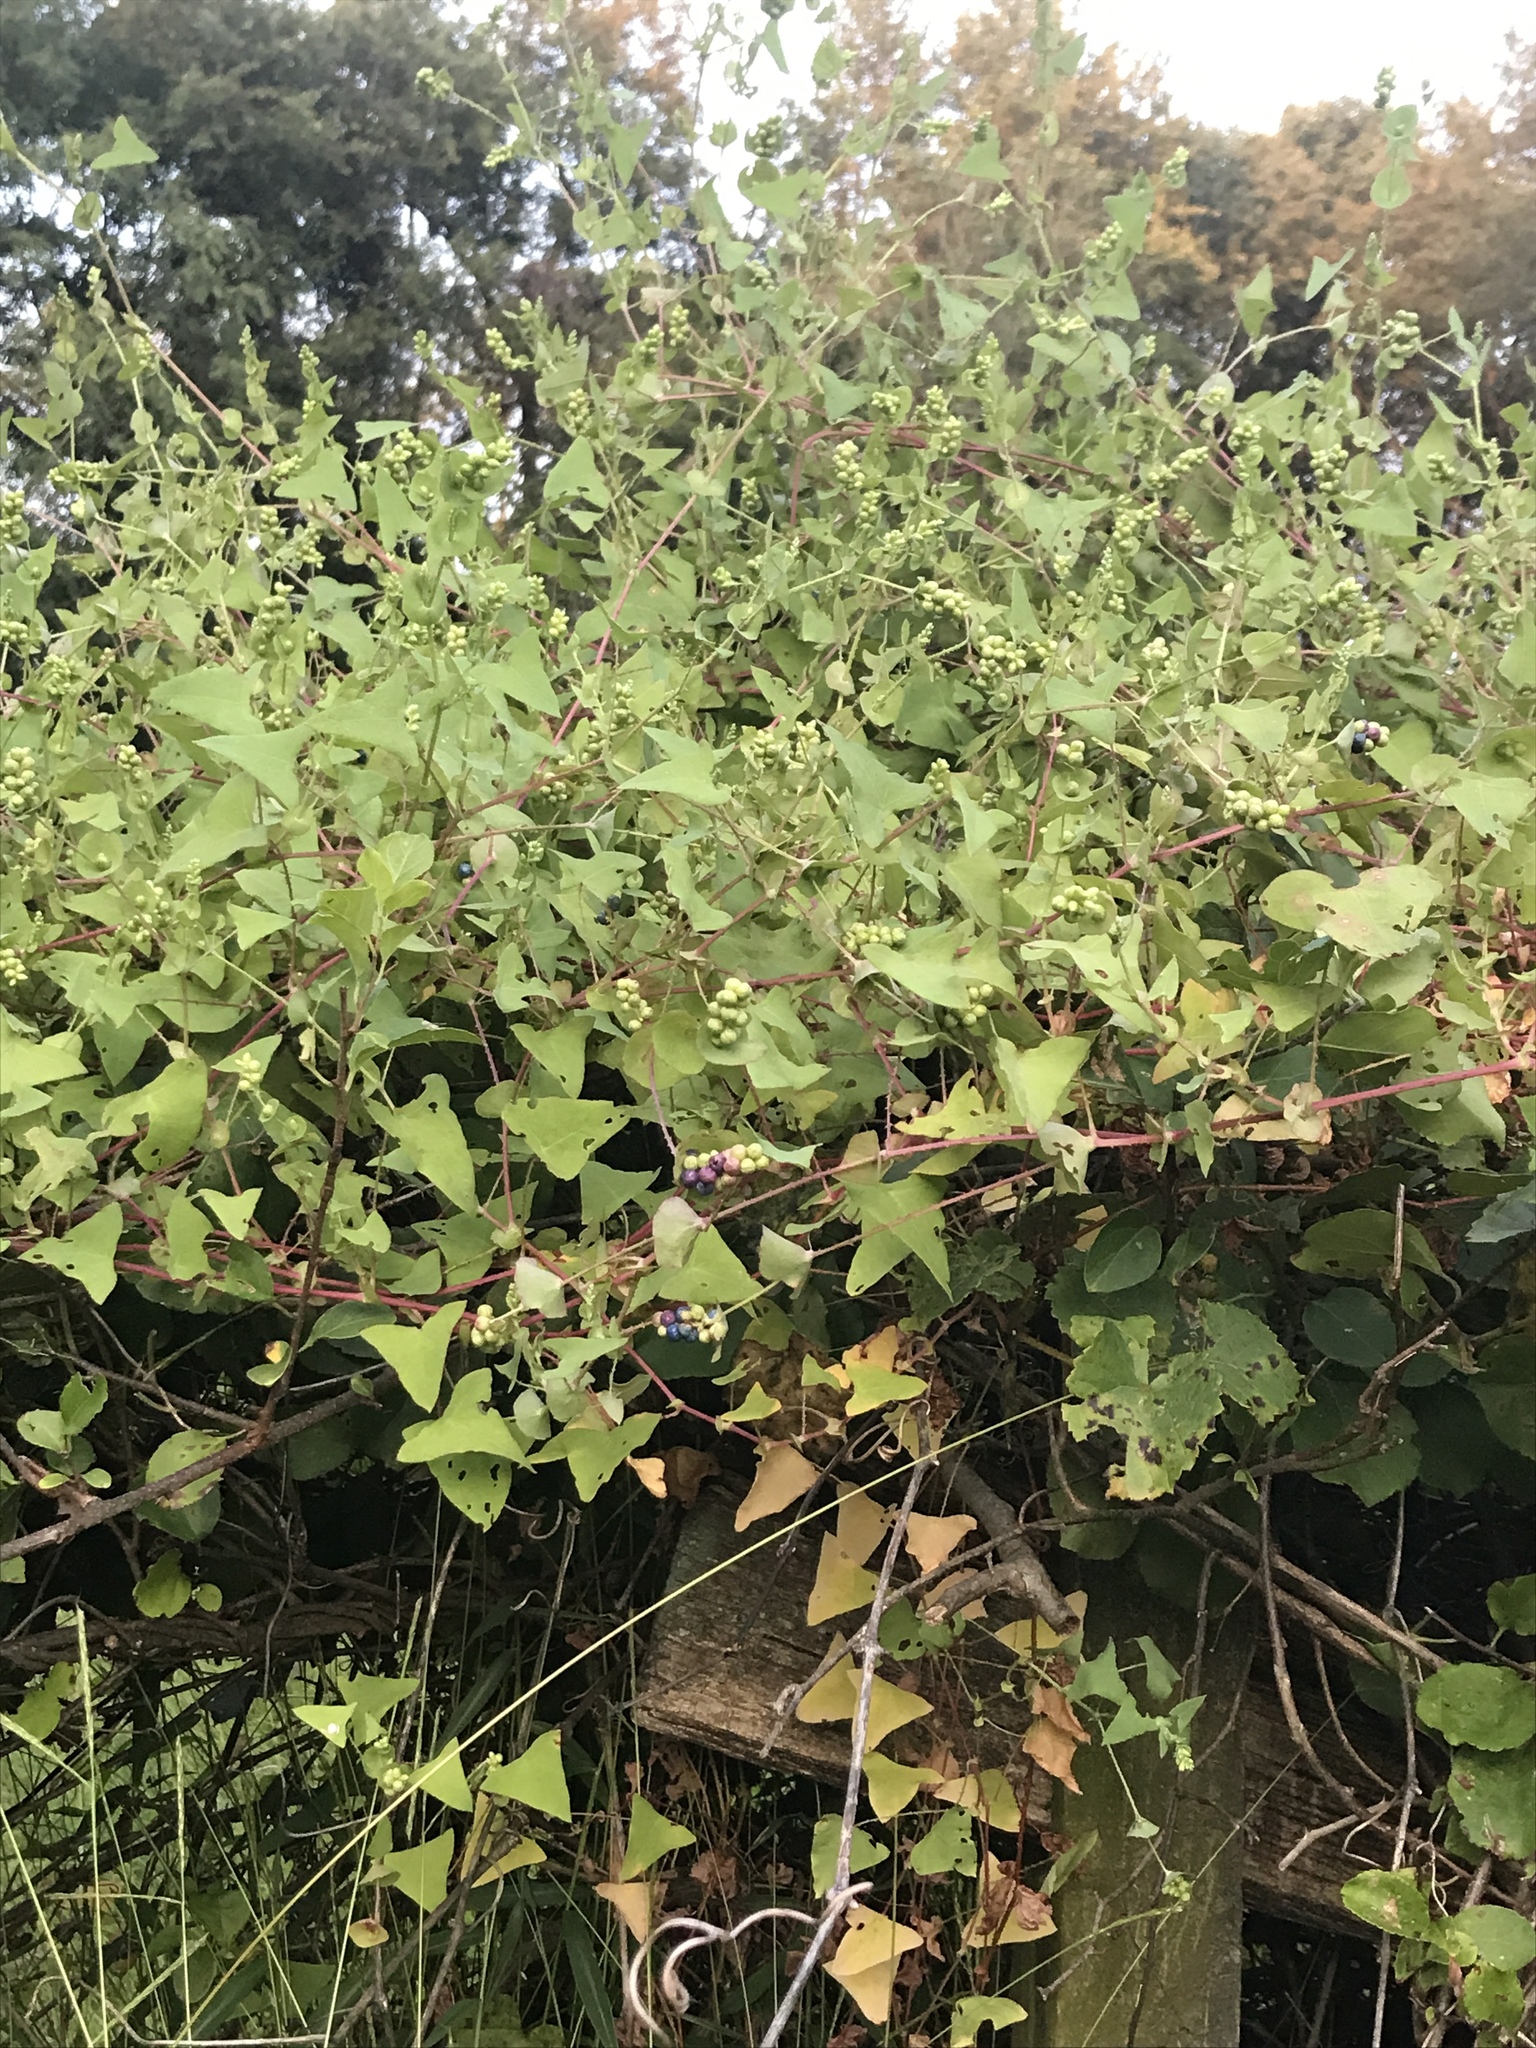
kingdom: Plantae
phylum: Tracheophyta
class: Magnoliopsida
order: Caryophyllales
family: Polygonaceae
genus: Persicaria
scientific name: Persicaria perfoliata
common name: Asiatic tearthumb
